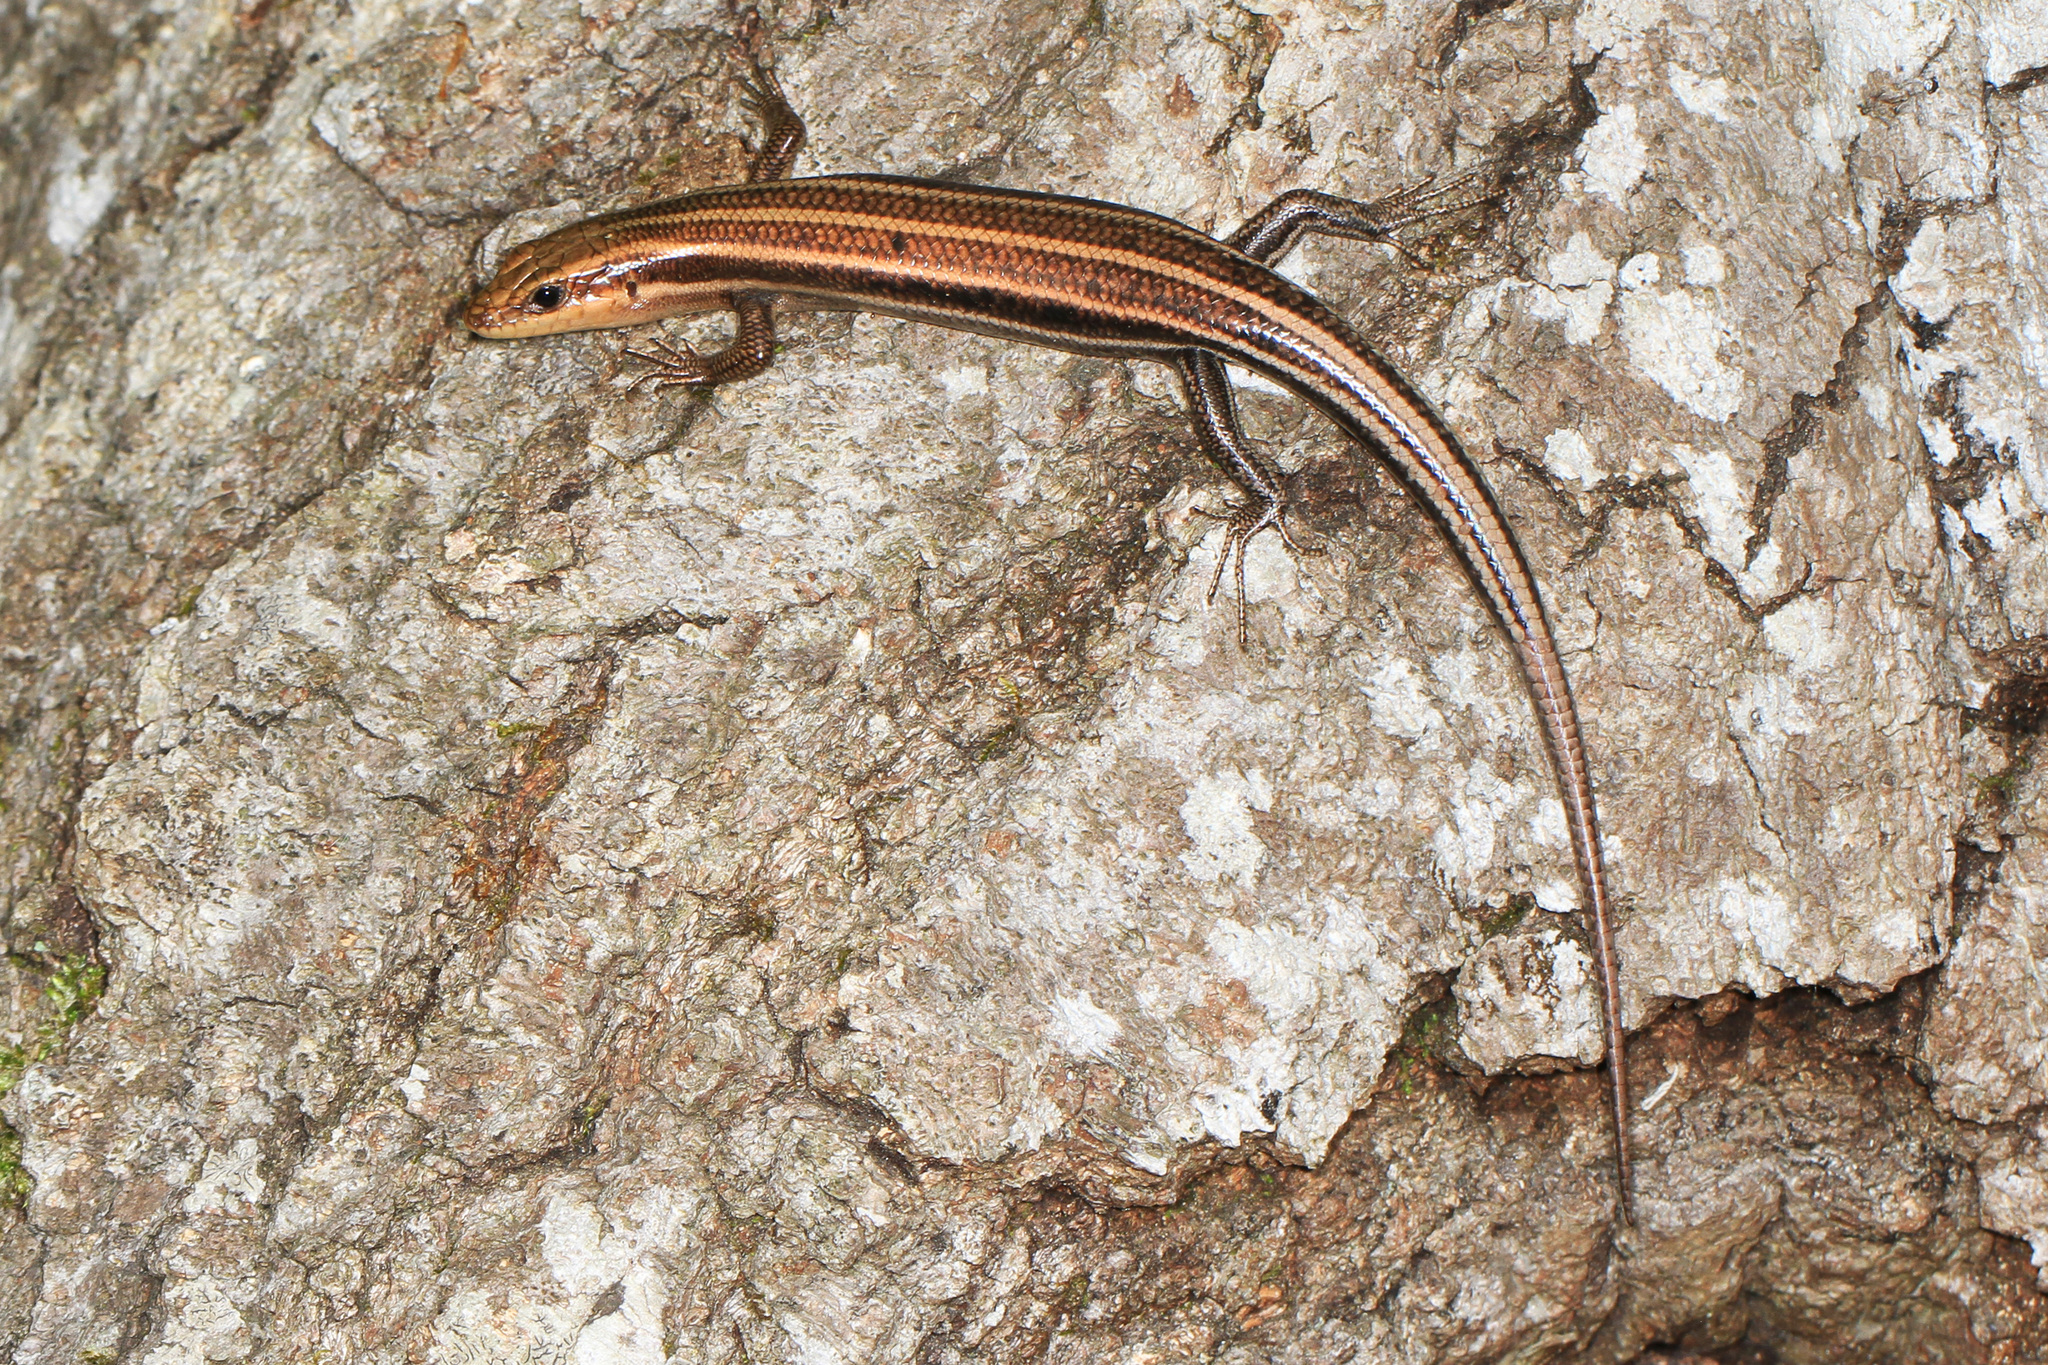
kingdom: Animalia
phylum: Chordata
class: Squamata
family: Scincidae
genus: Plestiodon
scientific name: Plestiodon fasciatus
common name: Five-lined skink
